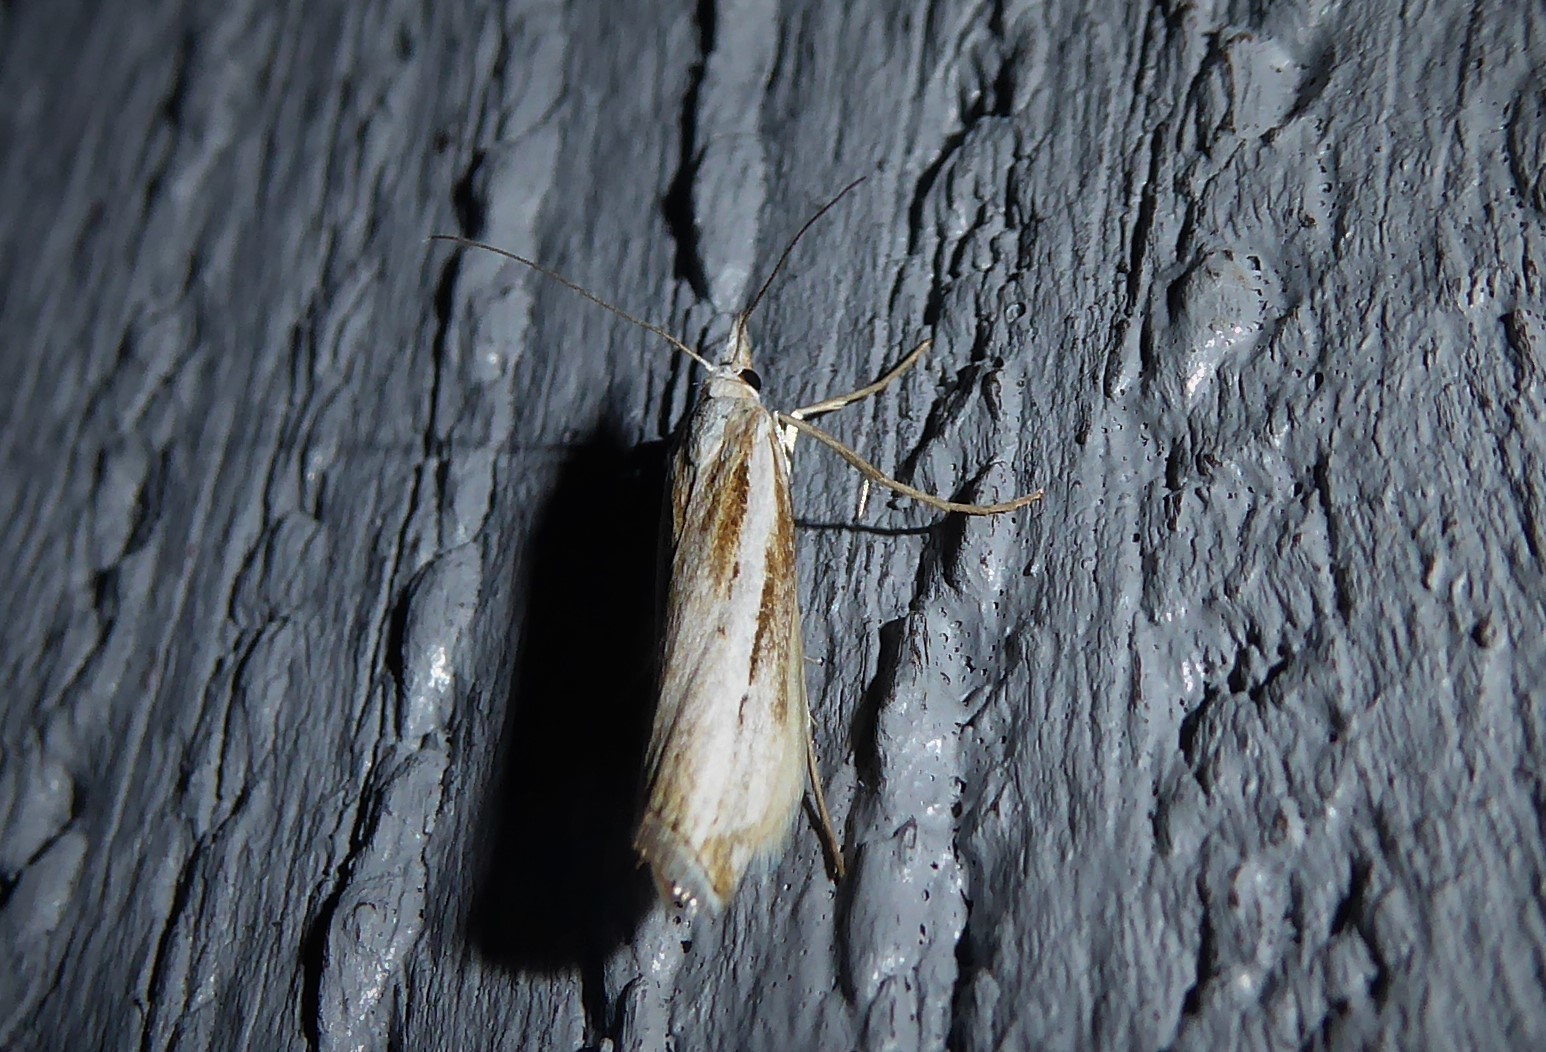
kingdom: Animalia
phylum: Arthropoda
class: Insecta
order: Lepidoptera
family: Crambidae
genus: Orocrambus
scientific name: Orocrambus vittellus
